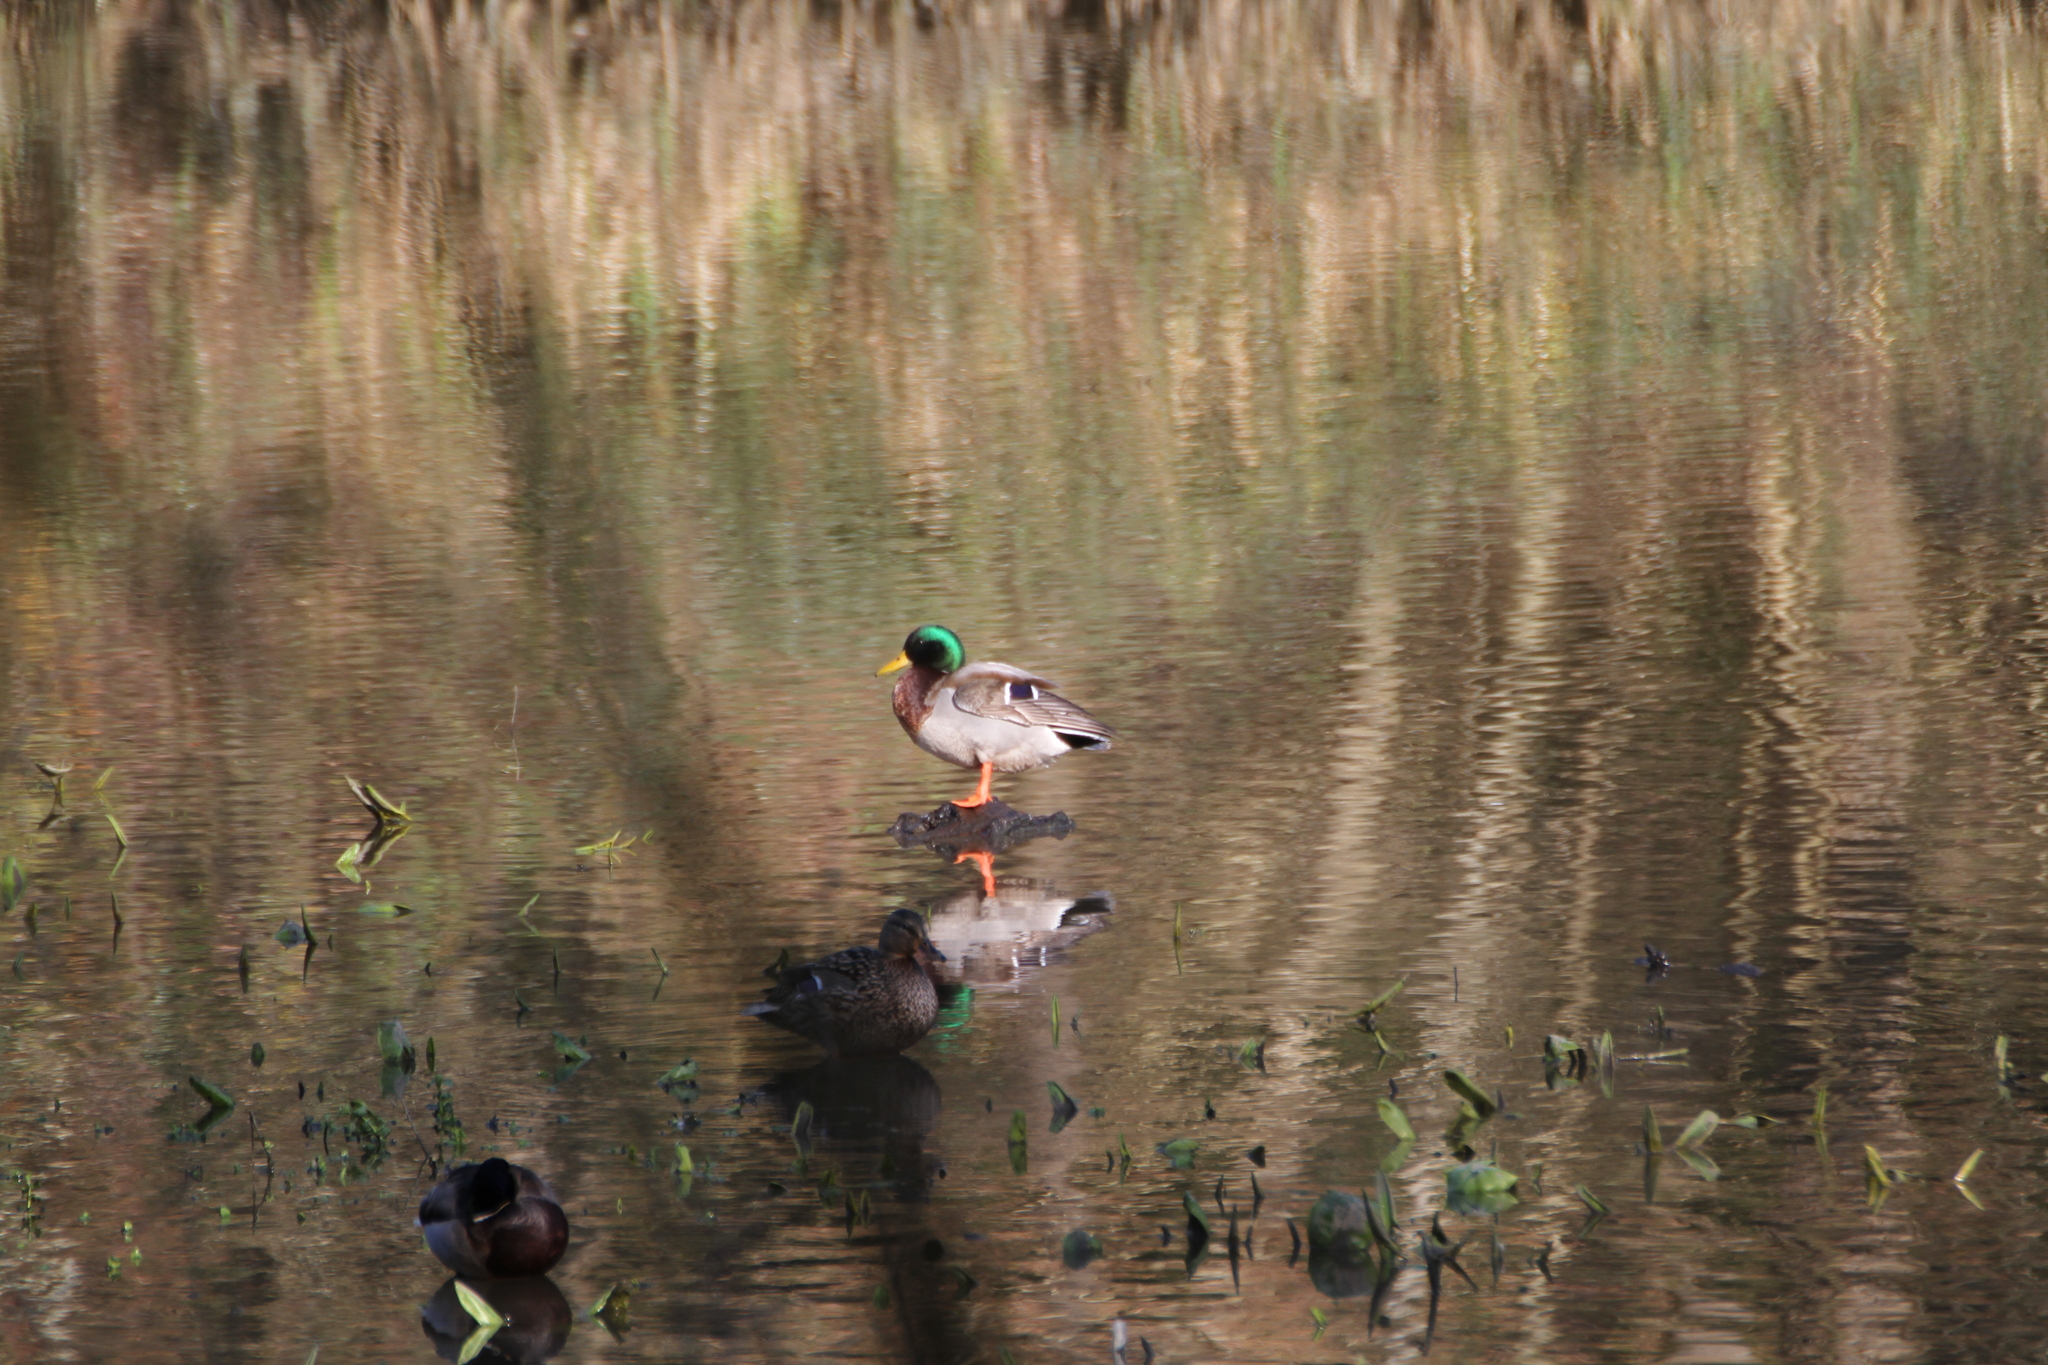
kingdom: Animalia
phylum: Chordata
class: Aves
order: Anseriformes
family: Anatidae
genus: Anas
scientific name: Anas platyrhynchos
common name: Mallard
